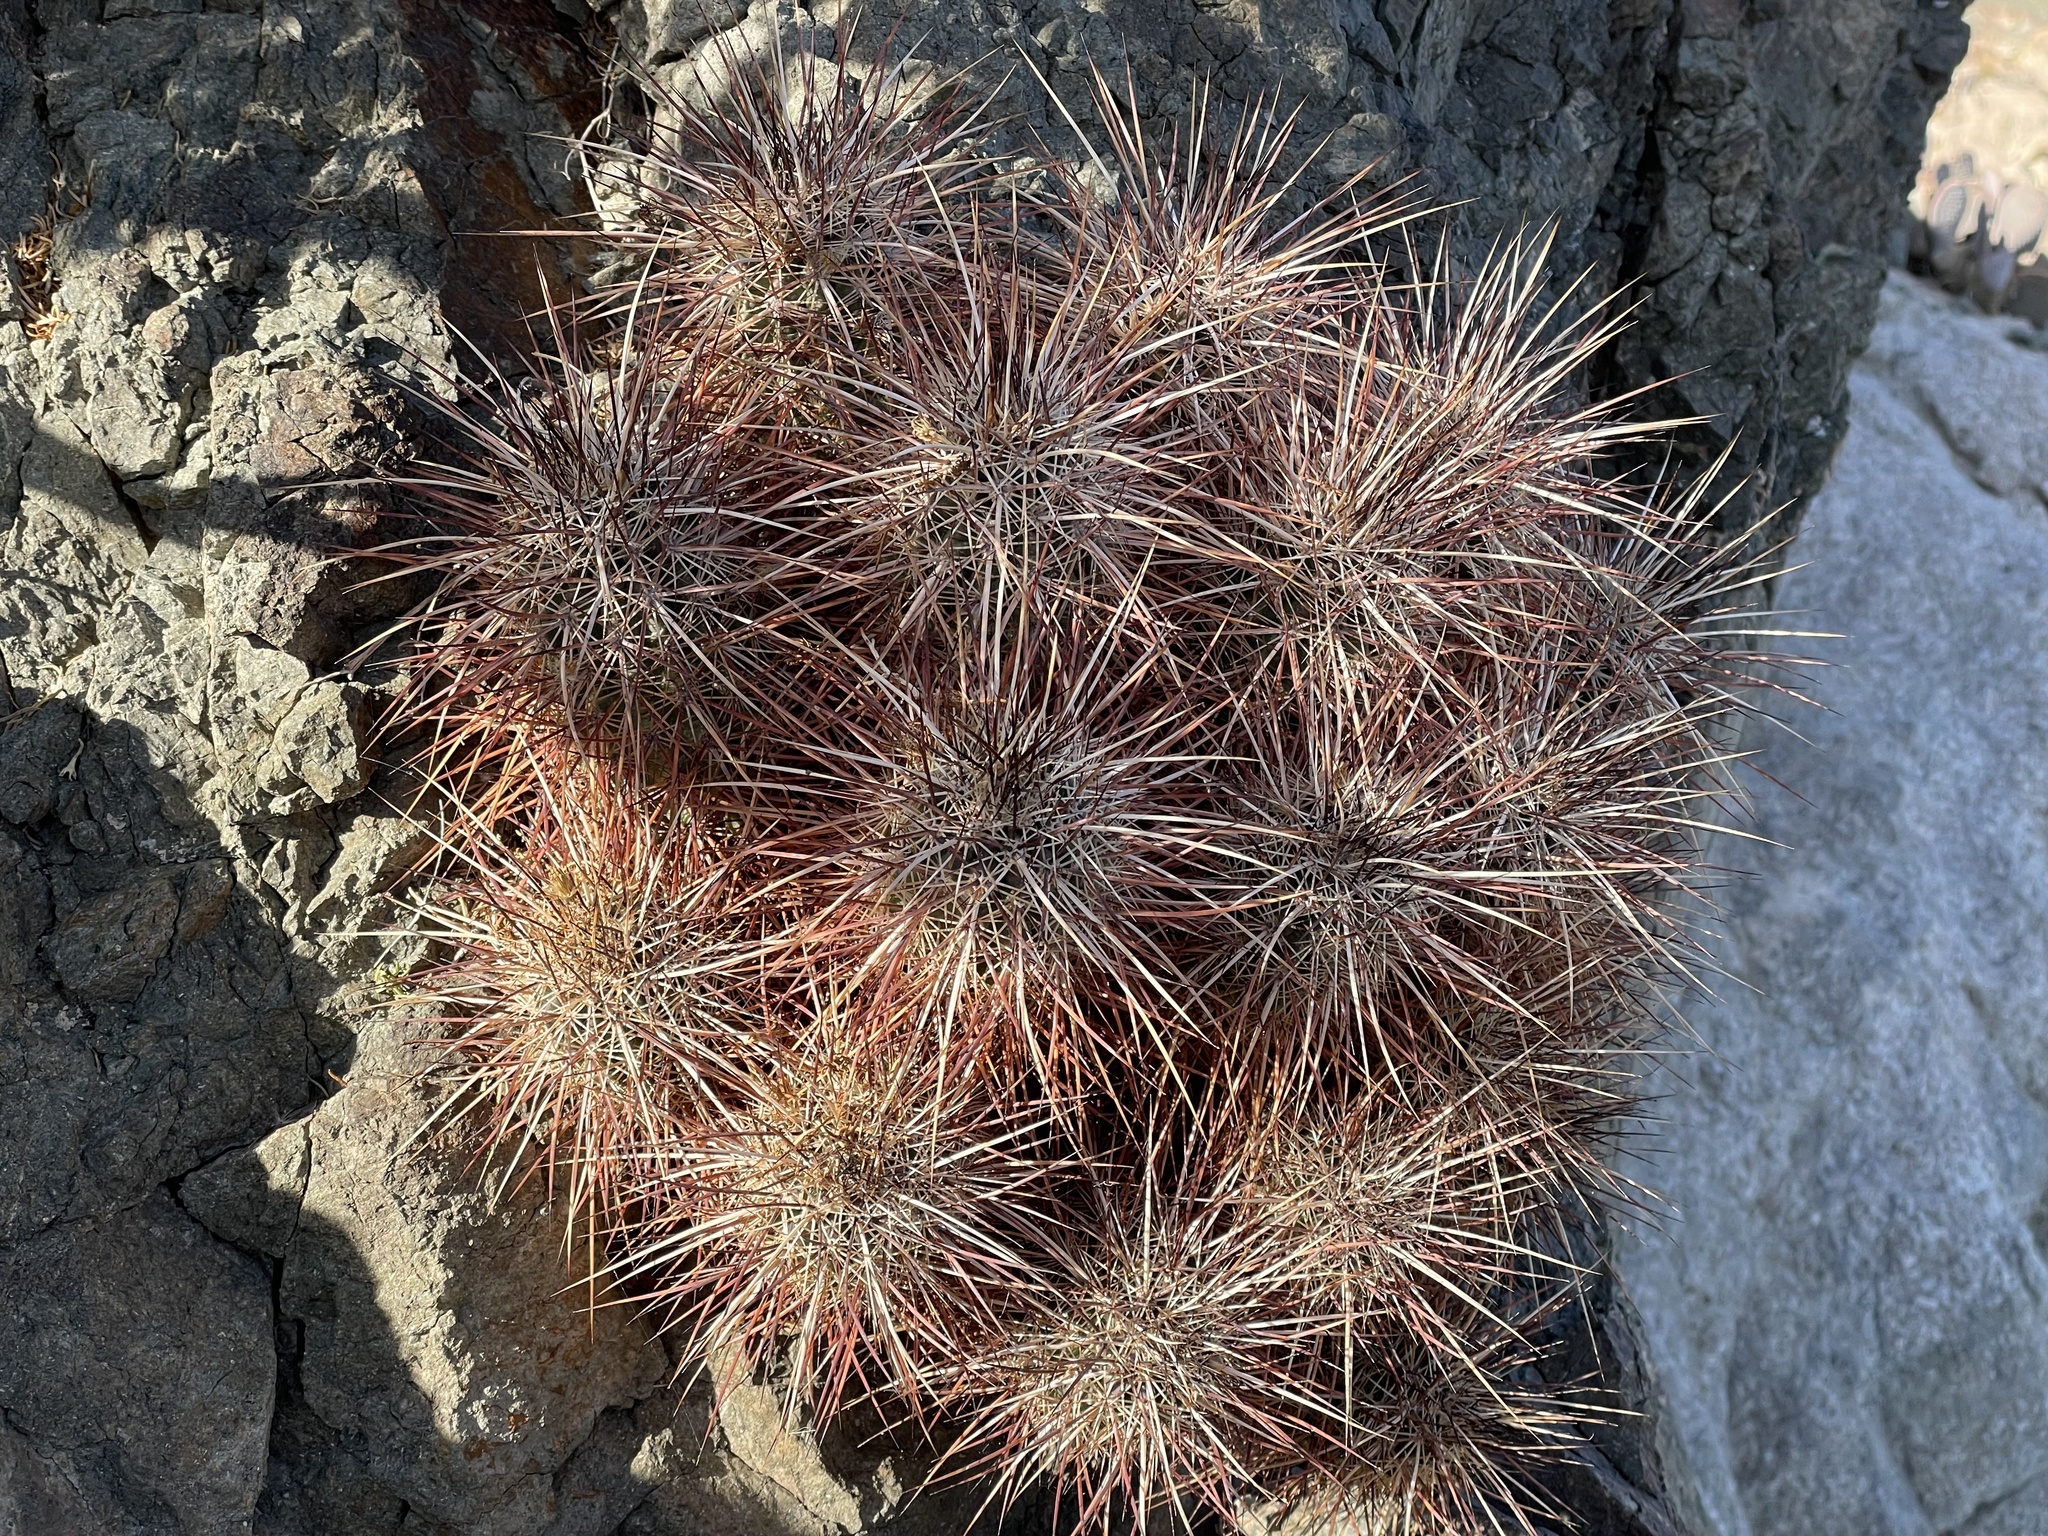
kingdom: Plantae
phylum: Tracheophyta
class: Magnoliopsida
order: Caryophyllales
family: Cactaceae
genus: Echinocereus
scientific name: Echinocereus engelmannii
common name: Engelmann's hedgehog cactus
